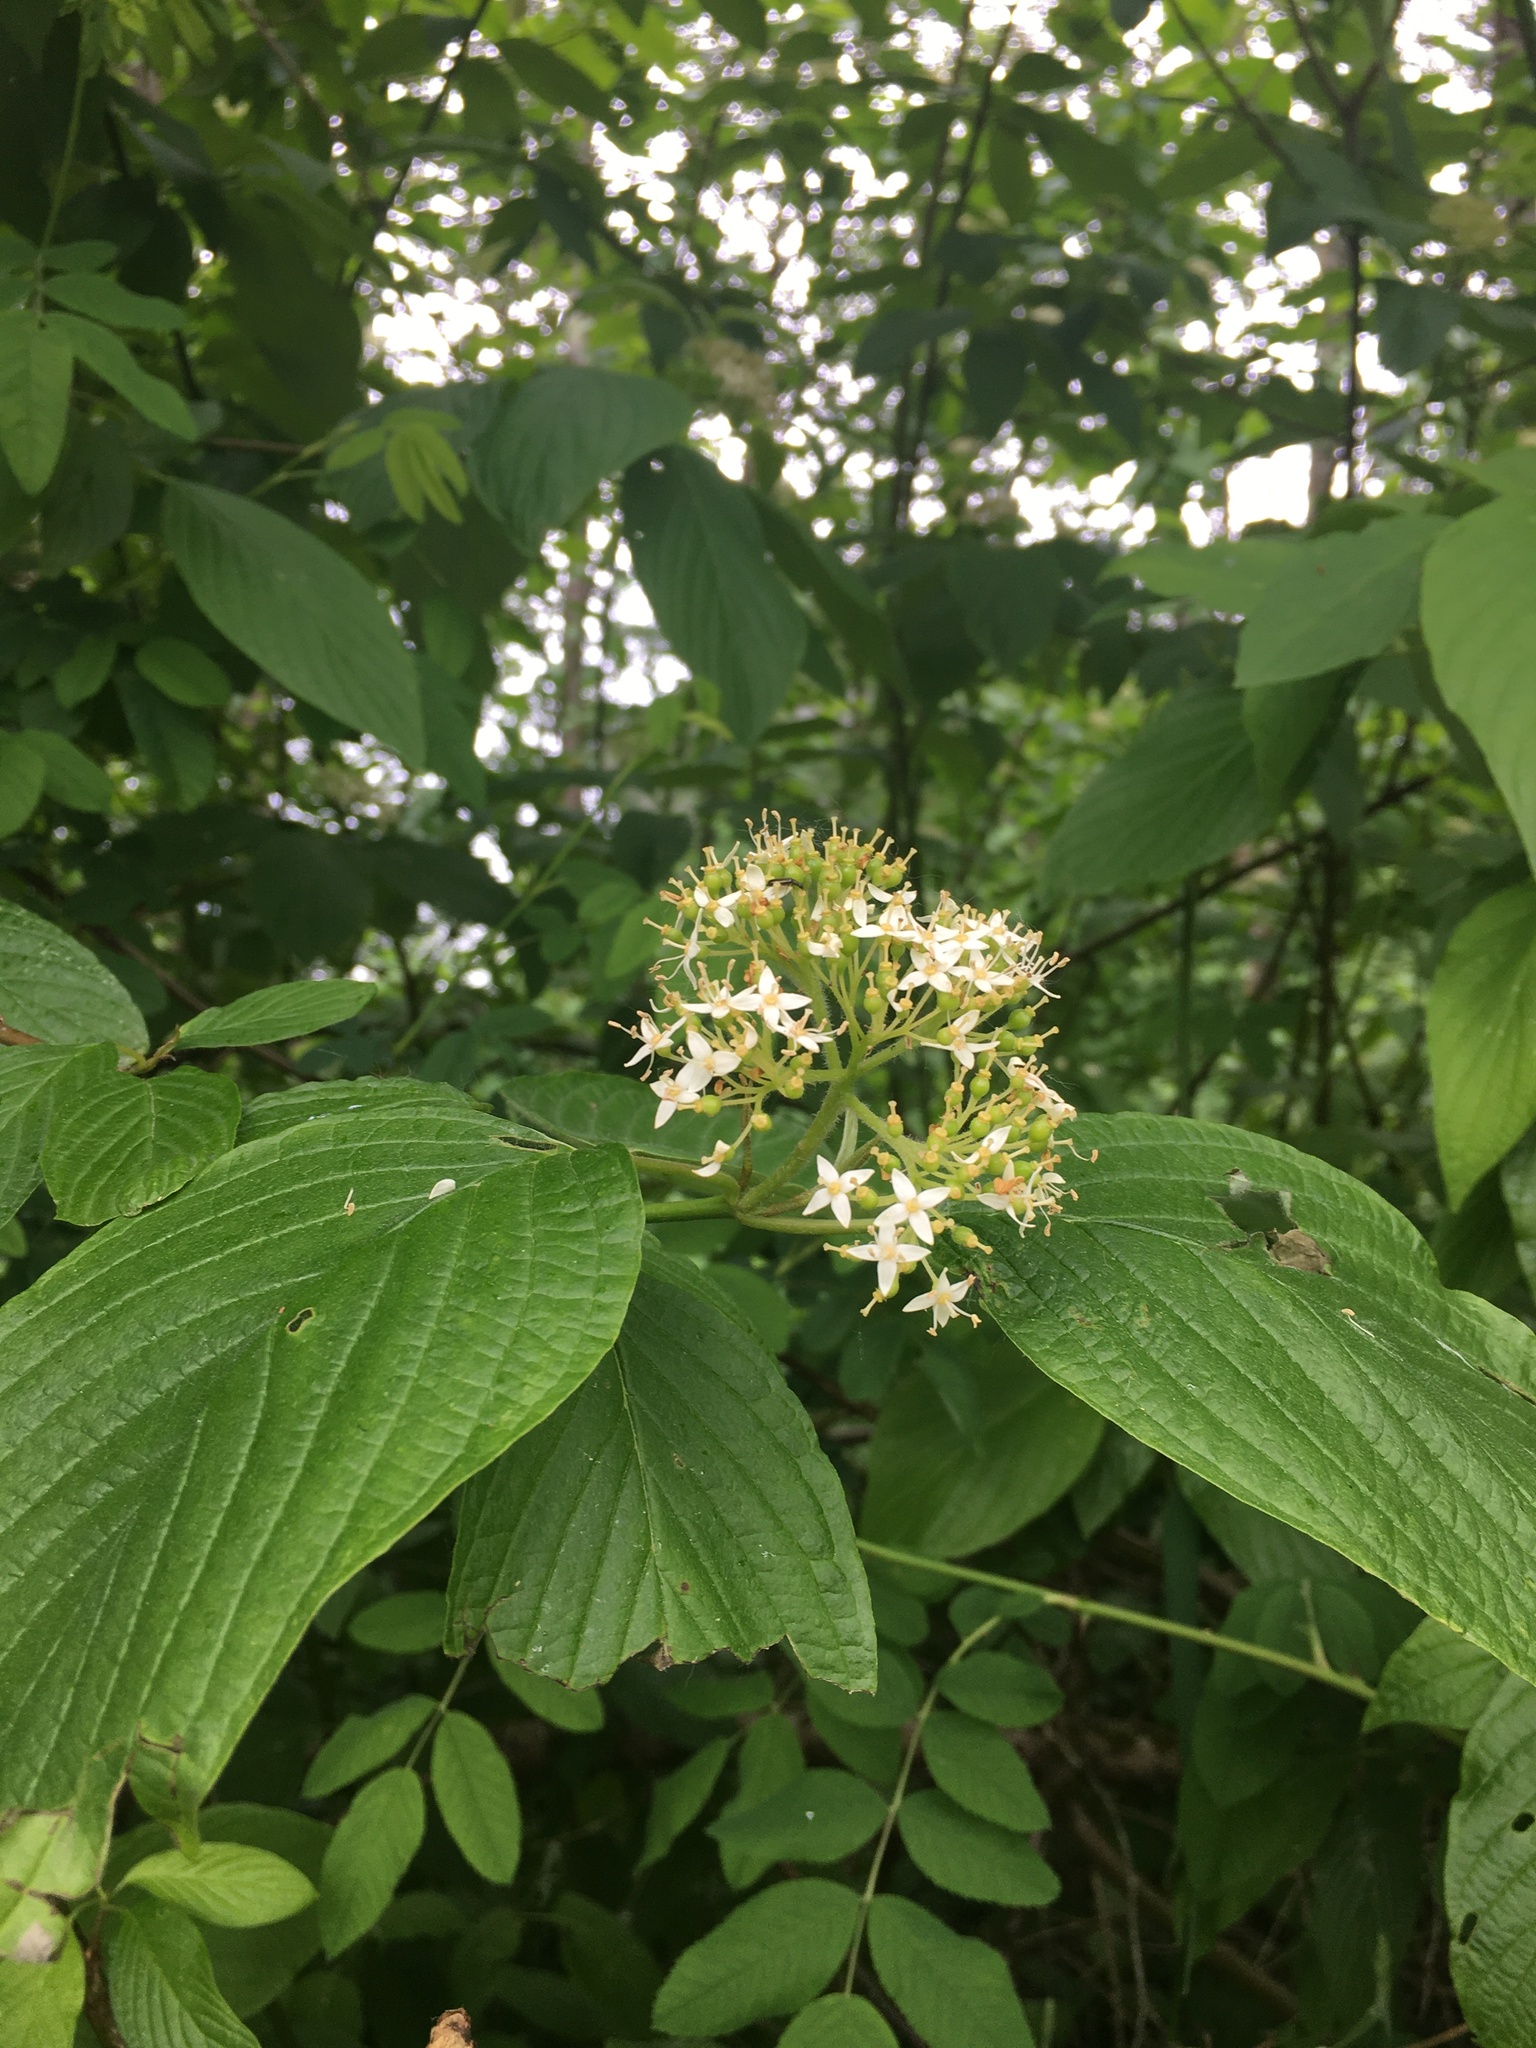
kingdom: Plantae
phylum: Tracheophyta
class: Magnoliopsida
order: Cornales
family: Cornaceae
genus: Cornus
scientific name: Cornus sericea
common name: Red-osier dogwood
